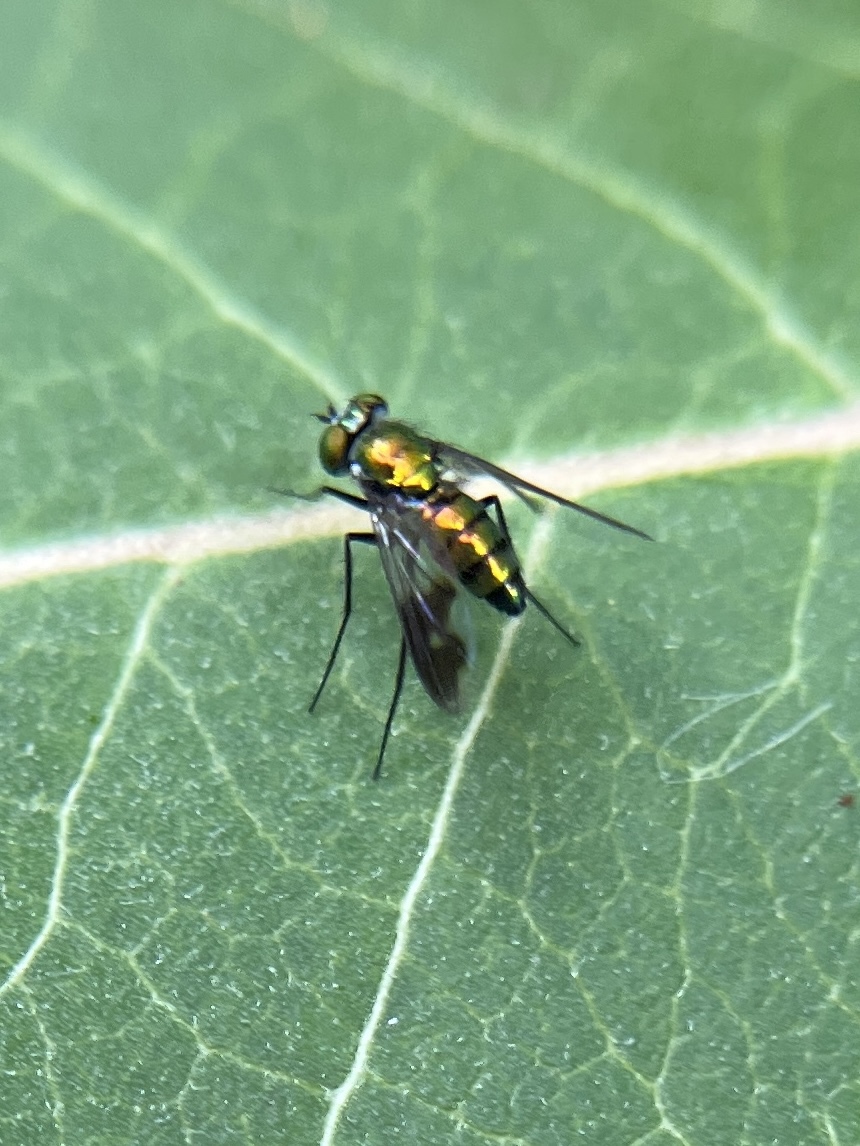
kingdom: Animalia
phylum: Arthropoda
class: Insecta
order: Diptera
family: Dolichopodidae
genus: Condylostylus
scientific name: Condylostylus patibulatus
